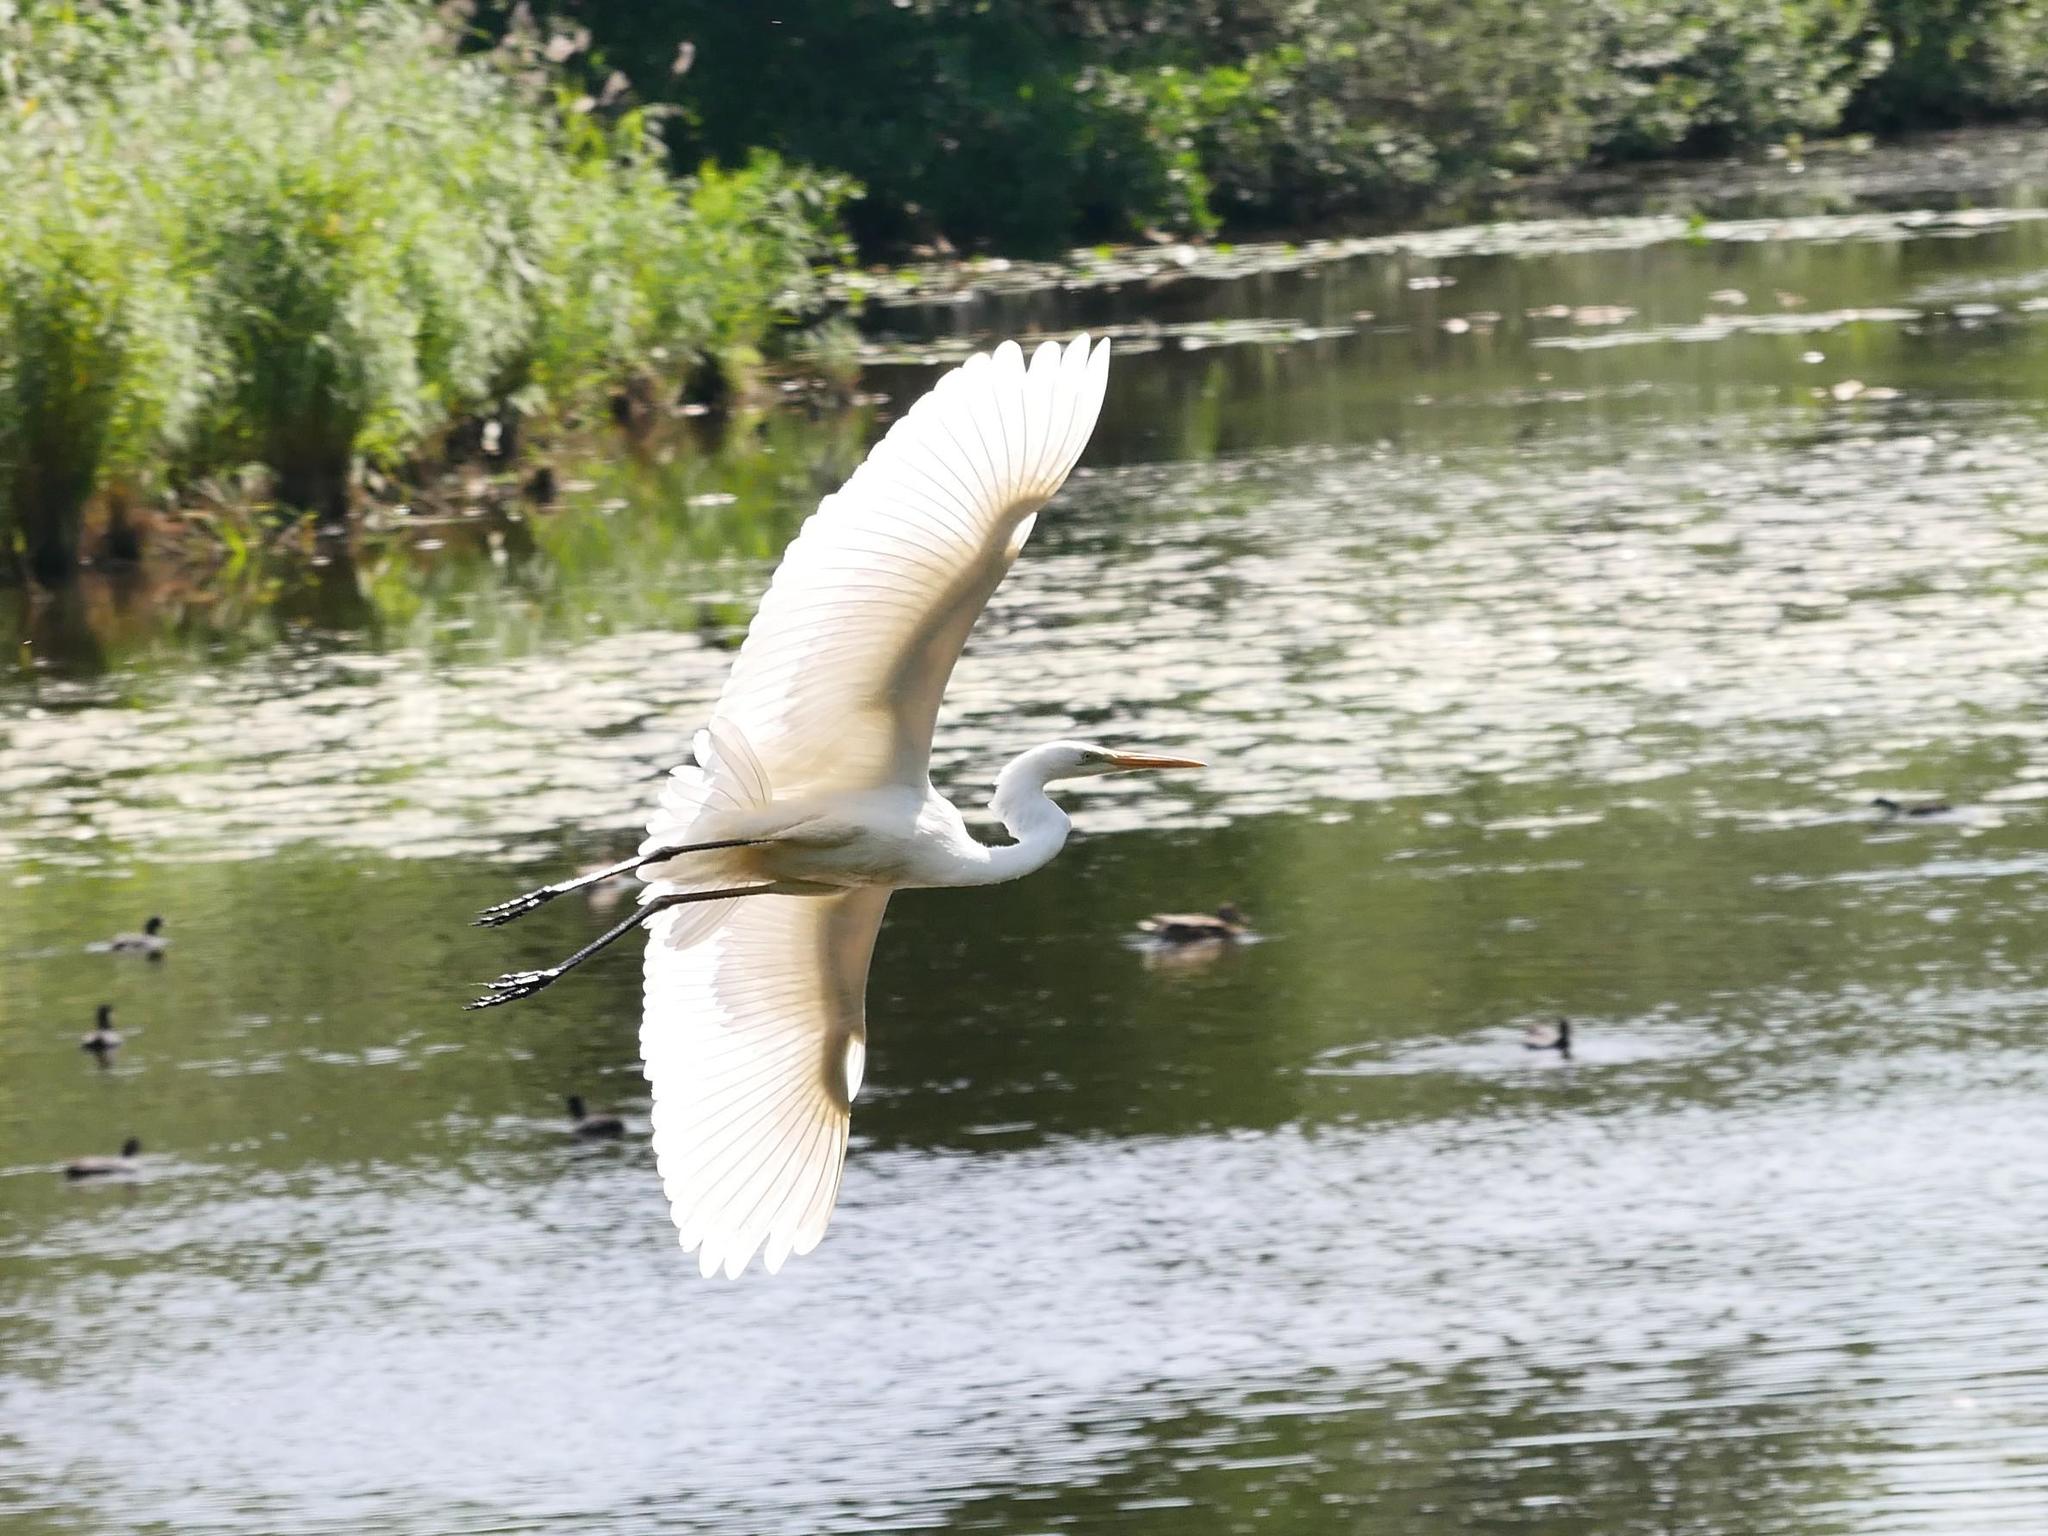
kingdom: Animalia
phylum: Chordata
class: Aves
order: Pelecaniformes
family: Ardeidae
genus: Ardea
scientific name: Ardea alba
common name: Great egret
